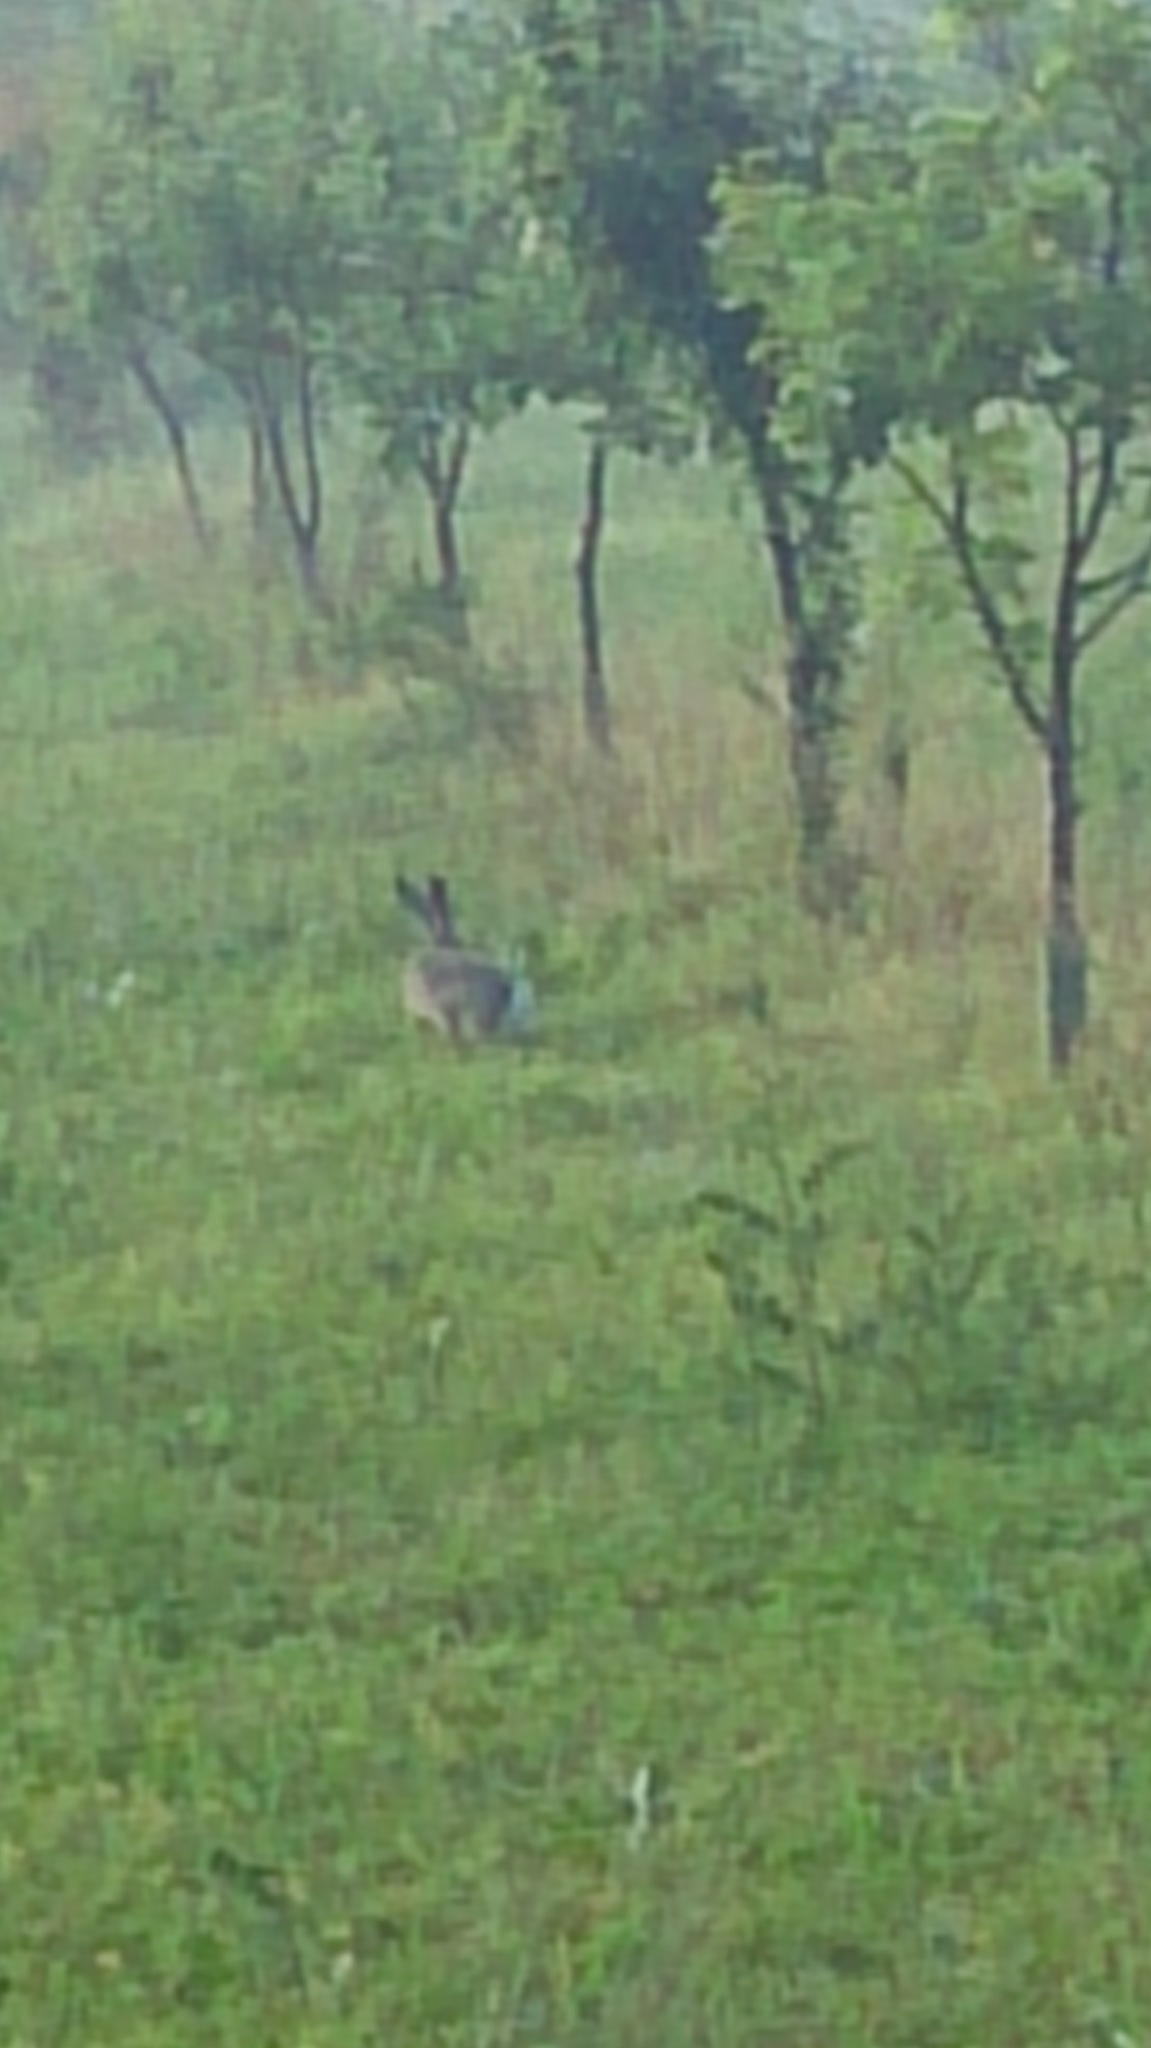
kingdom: Animalia
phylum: Chordata
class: Mammalia
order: Lagomorpha
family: Leporidae
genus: Lepus
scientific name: Lepus europaeus
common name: European hare
